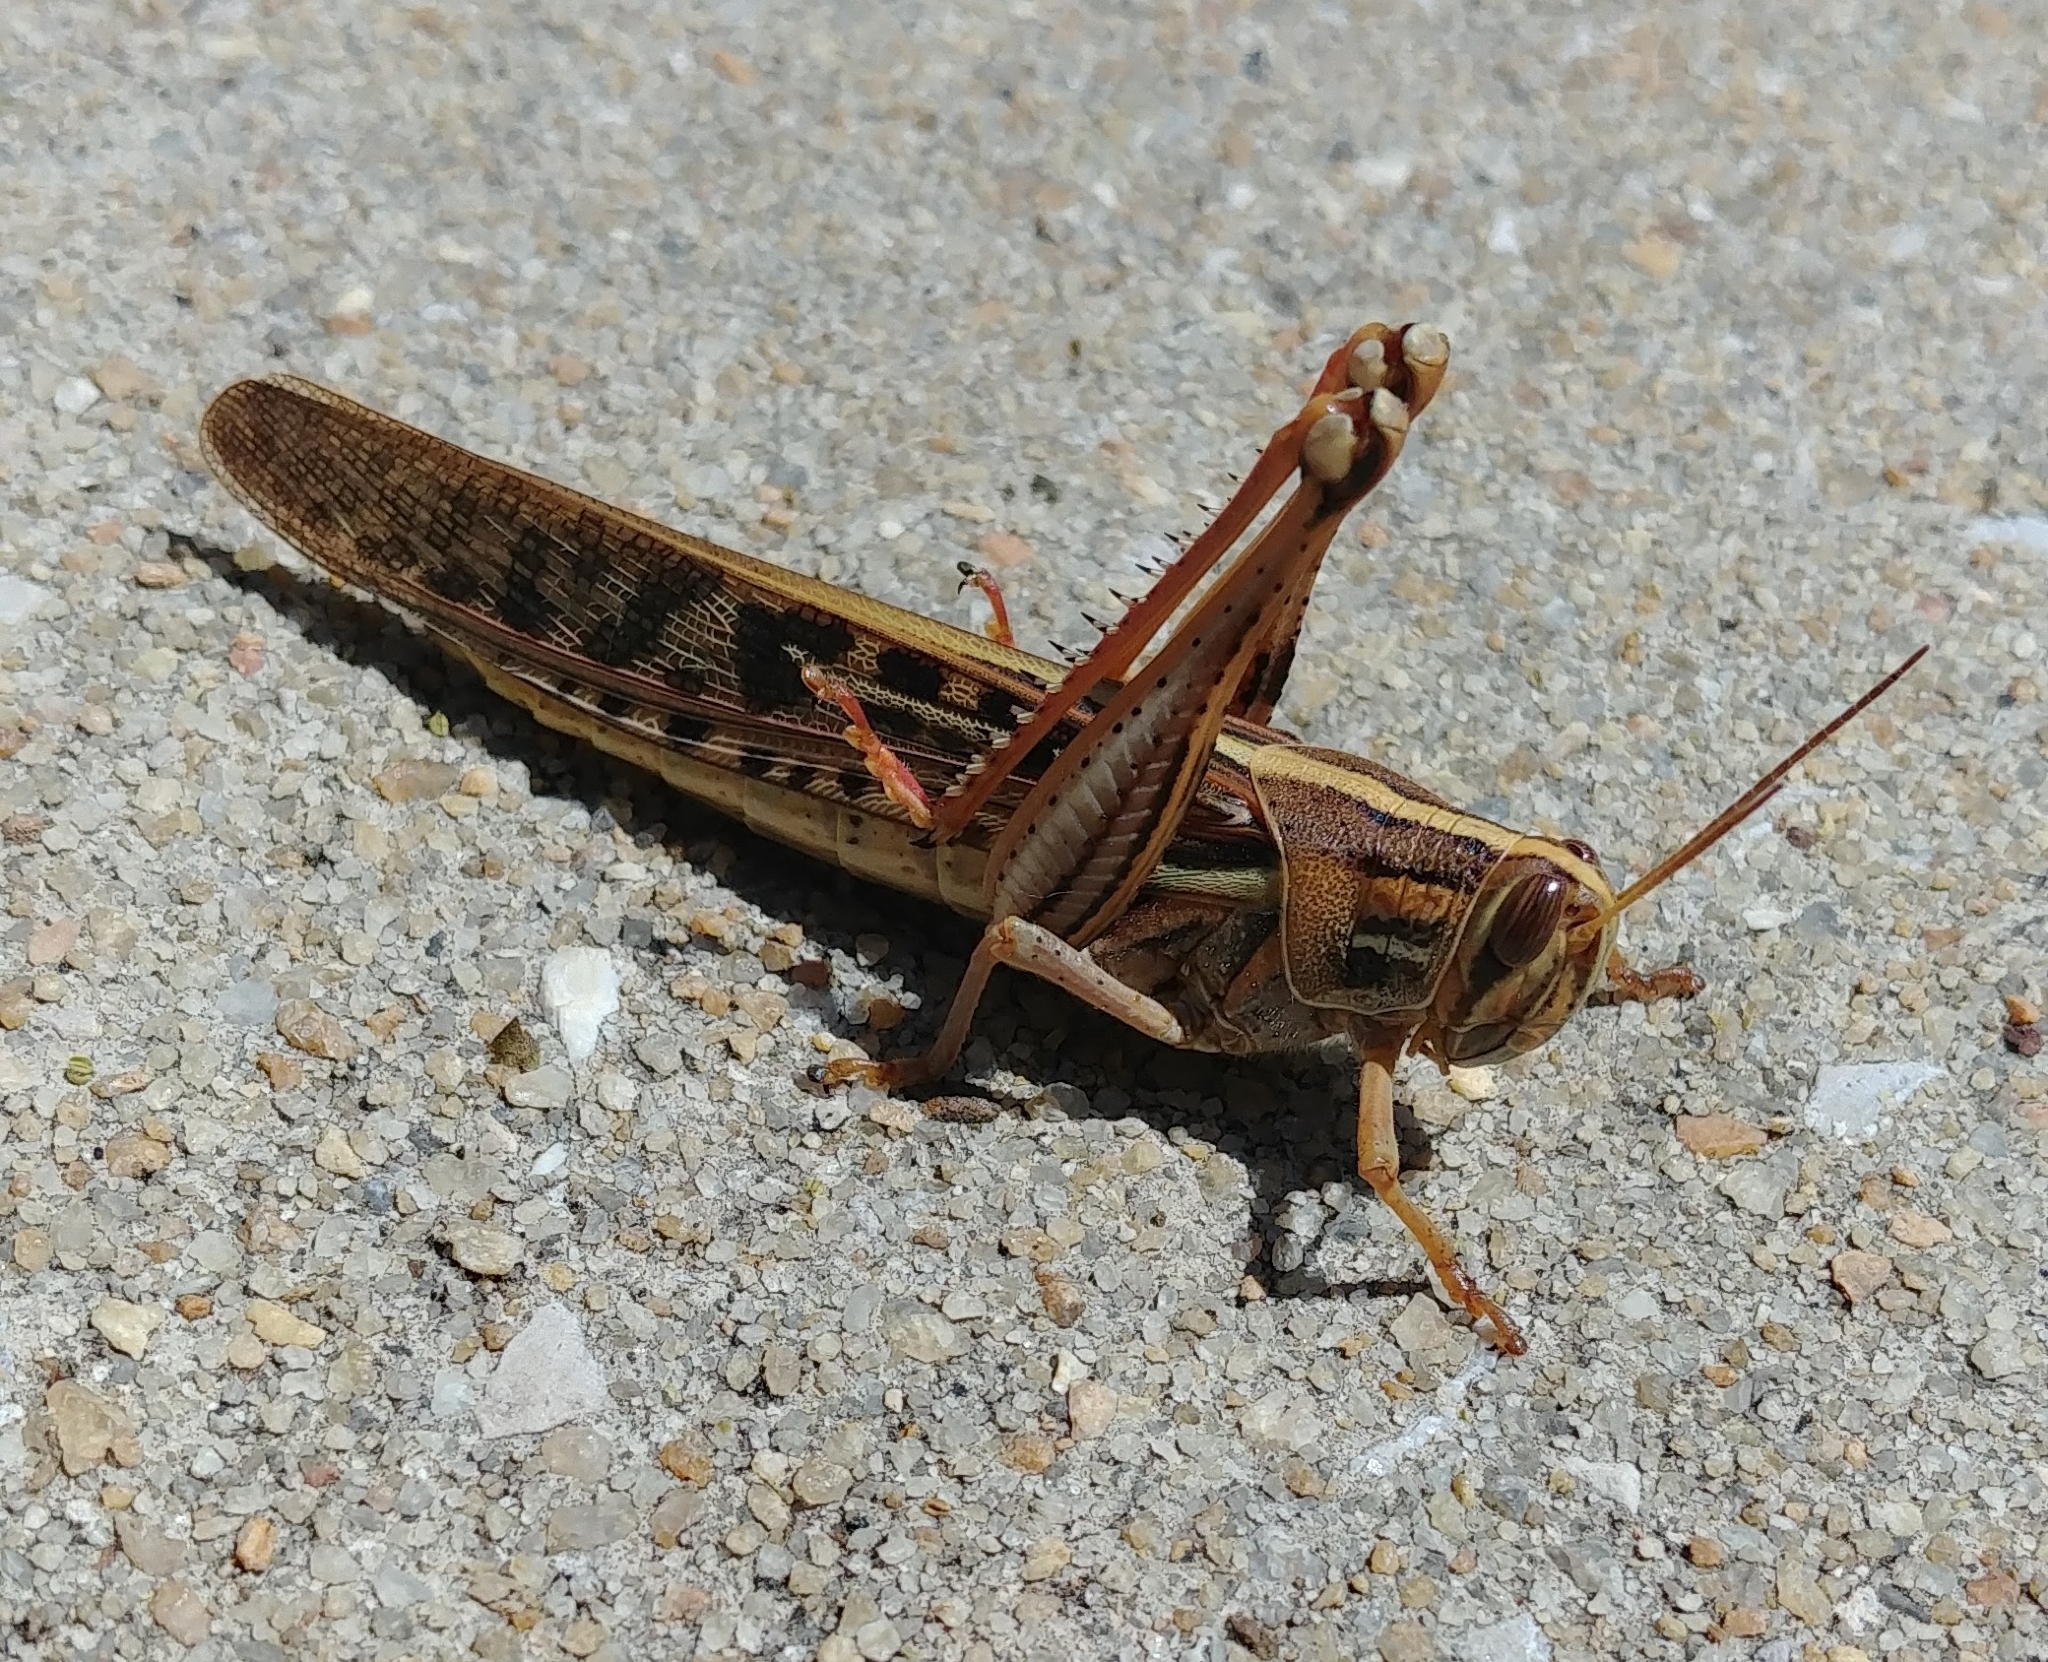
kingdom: Animalia
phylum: Arthropoda
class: Insecta
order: Orthoptera
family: Acrididae
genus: Schistocerca
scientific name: Schistocerca americana
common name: American bird locust
